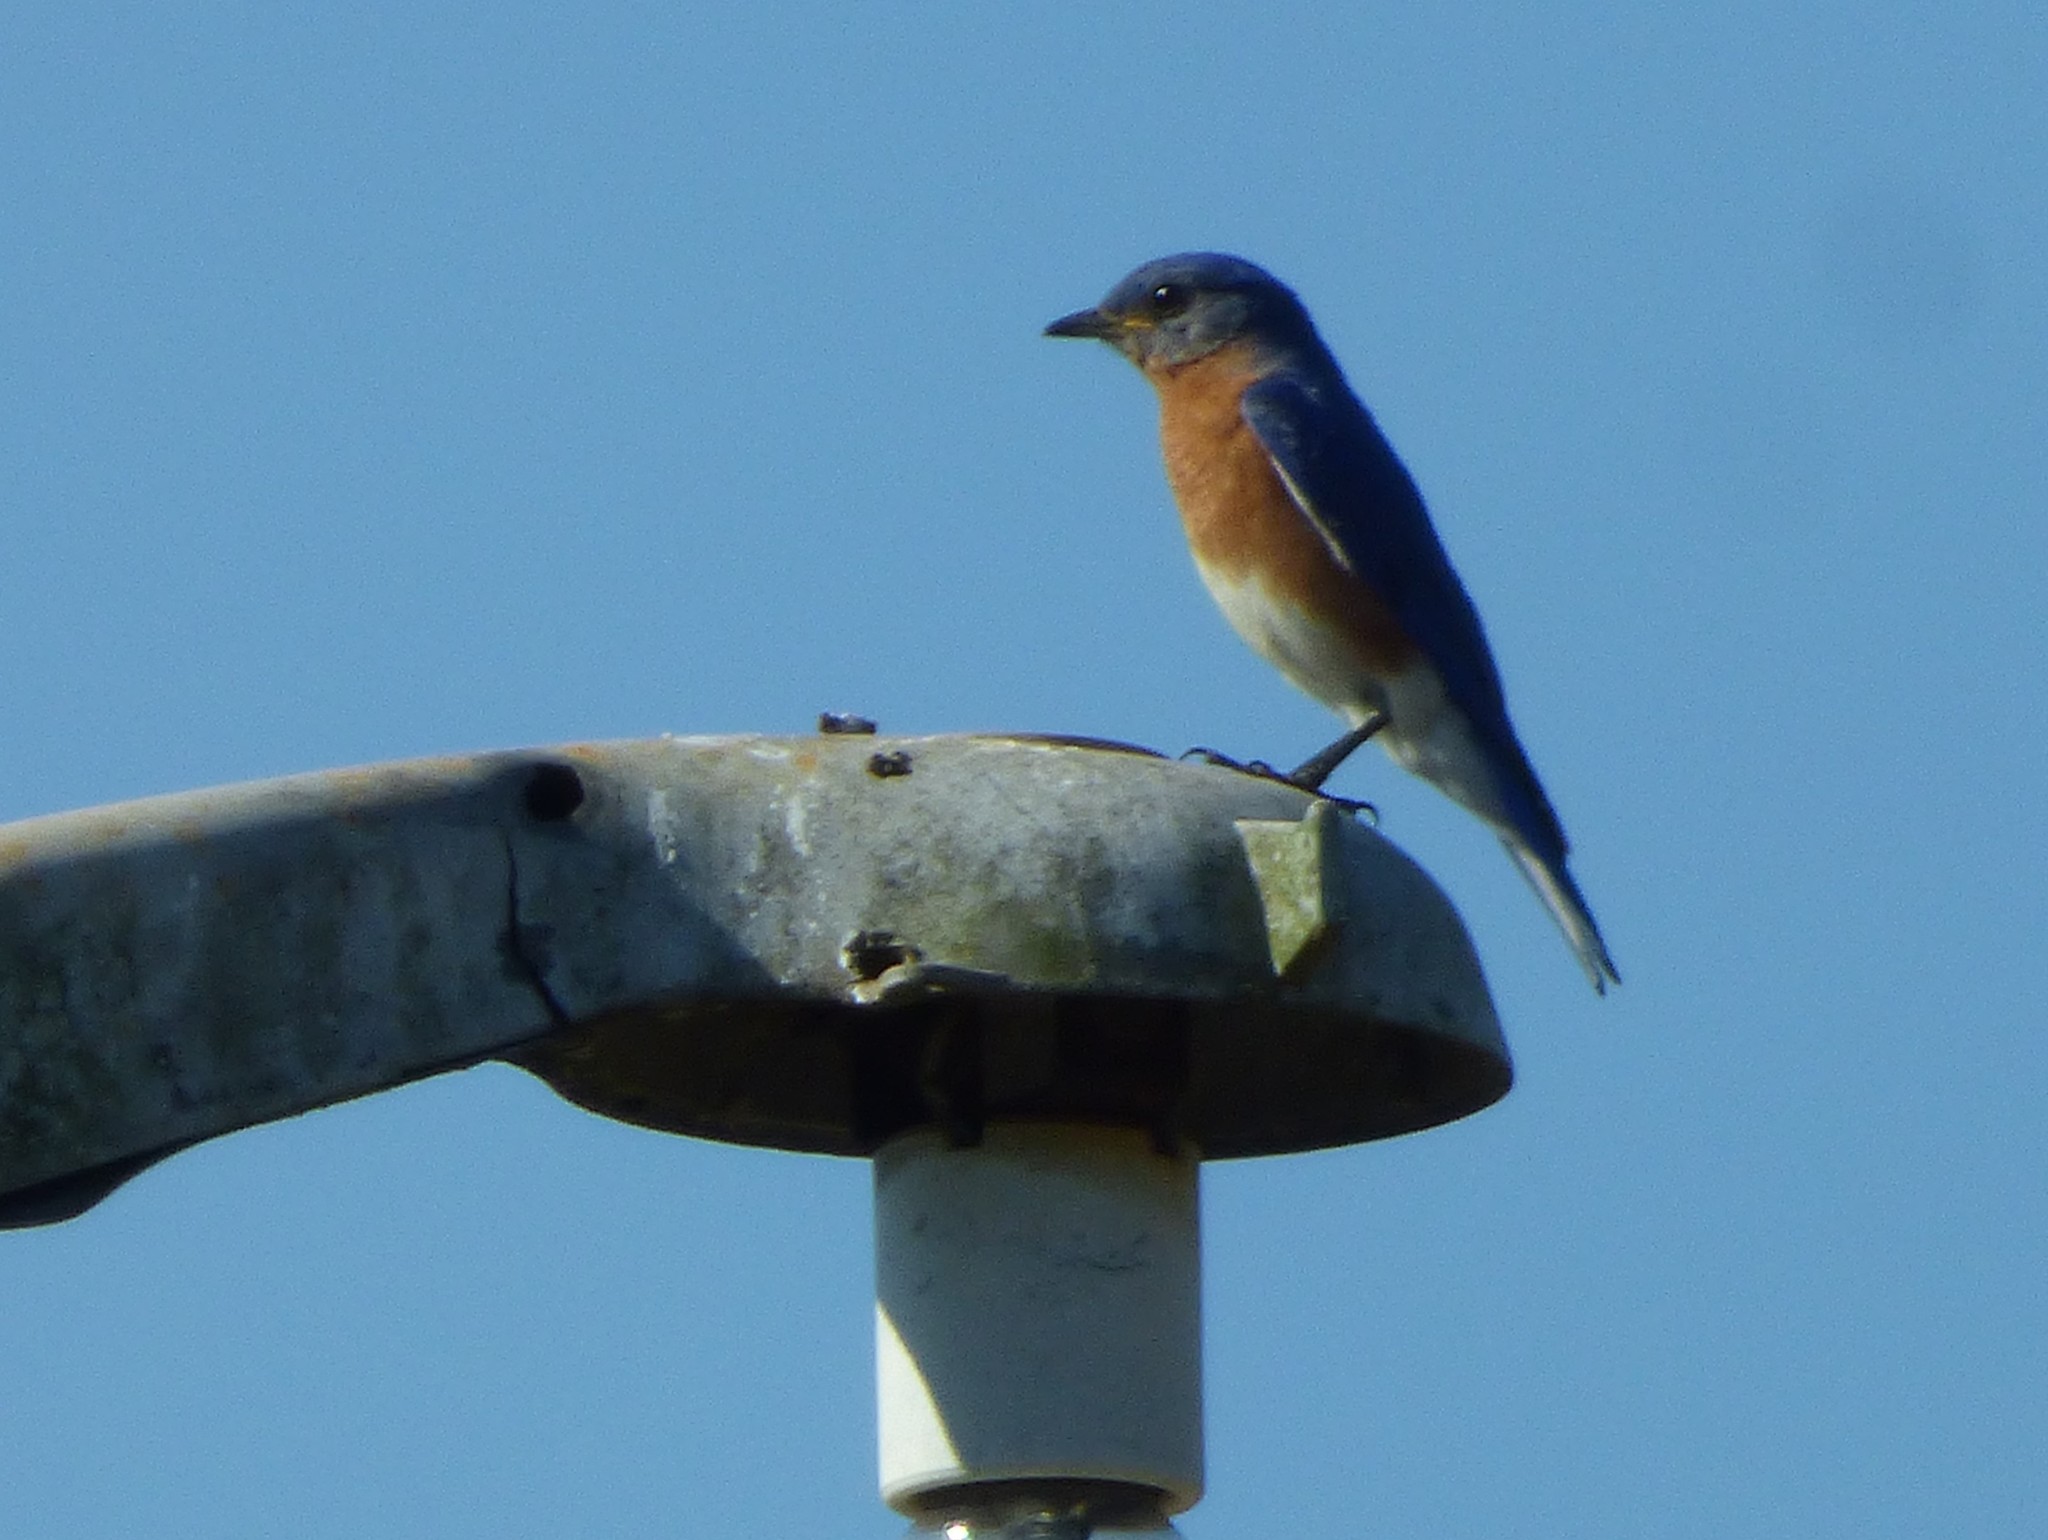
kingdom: Animalia
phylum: Chordata
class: Aves
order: Passeriformes
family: Turdidae
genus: Sialia
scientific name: Sialia sialis
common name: Eastern bluebird
